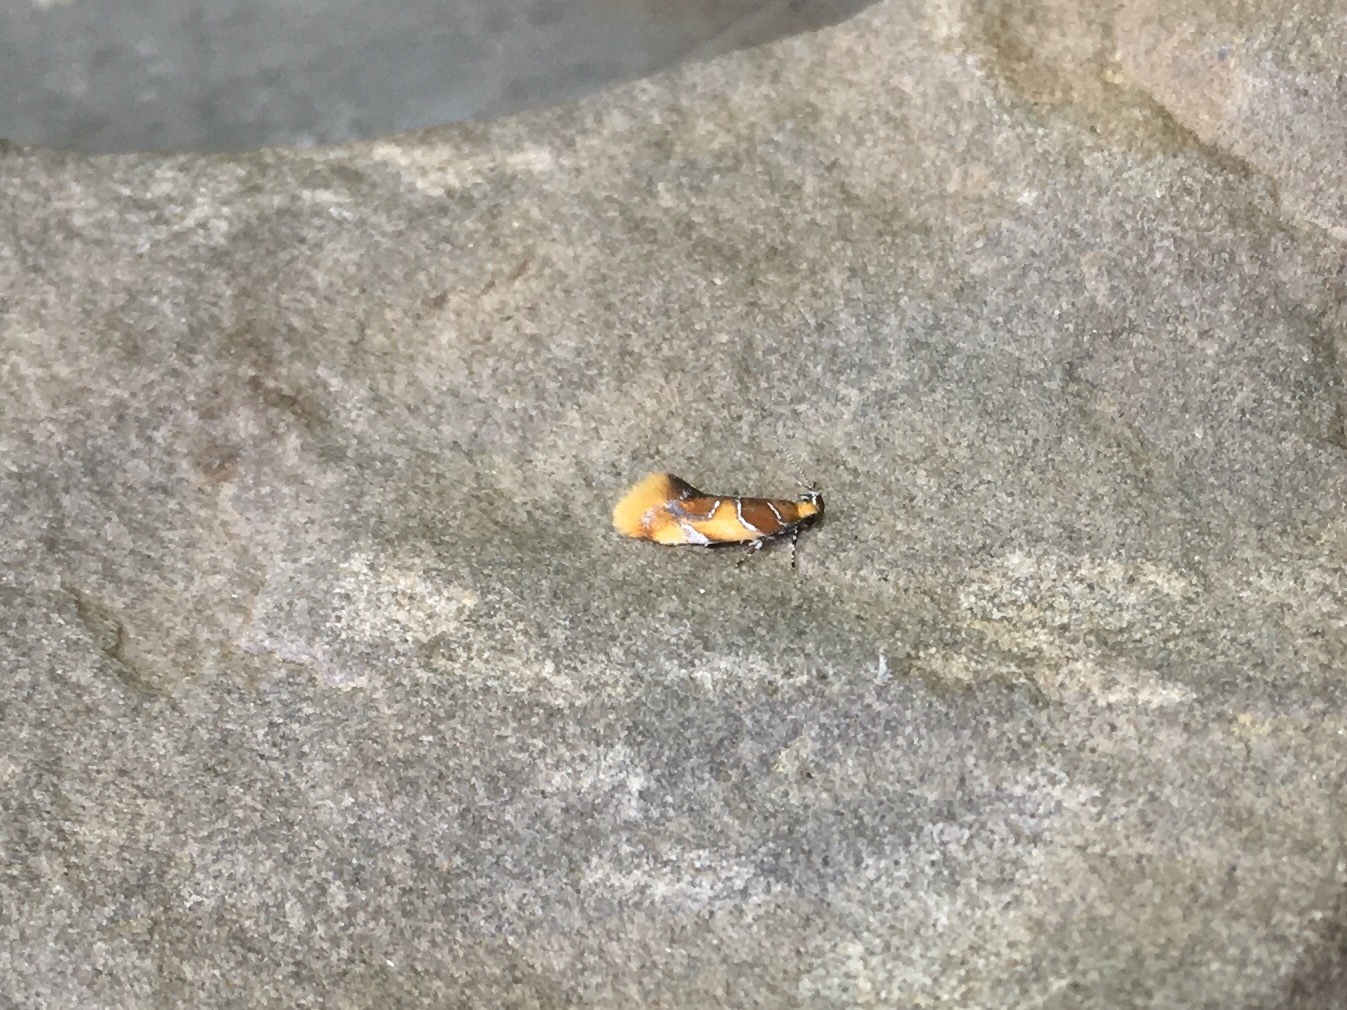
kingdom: Animalia
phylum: Arthropoda
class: Insecta
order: Lepidoptera
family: Oecophoridae
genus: Callima
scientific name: Callima argenticinctella
